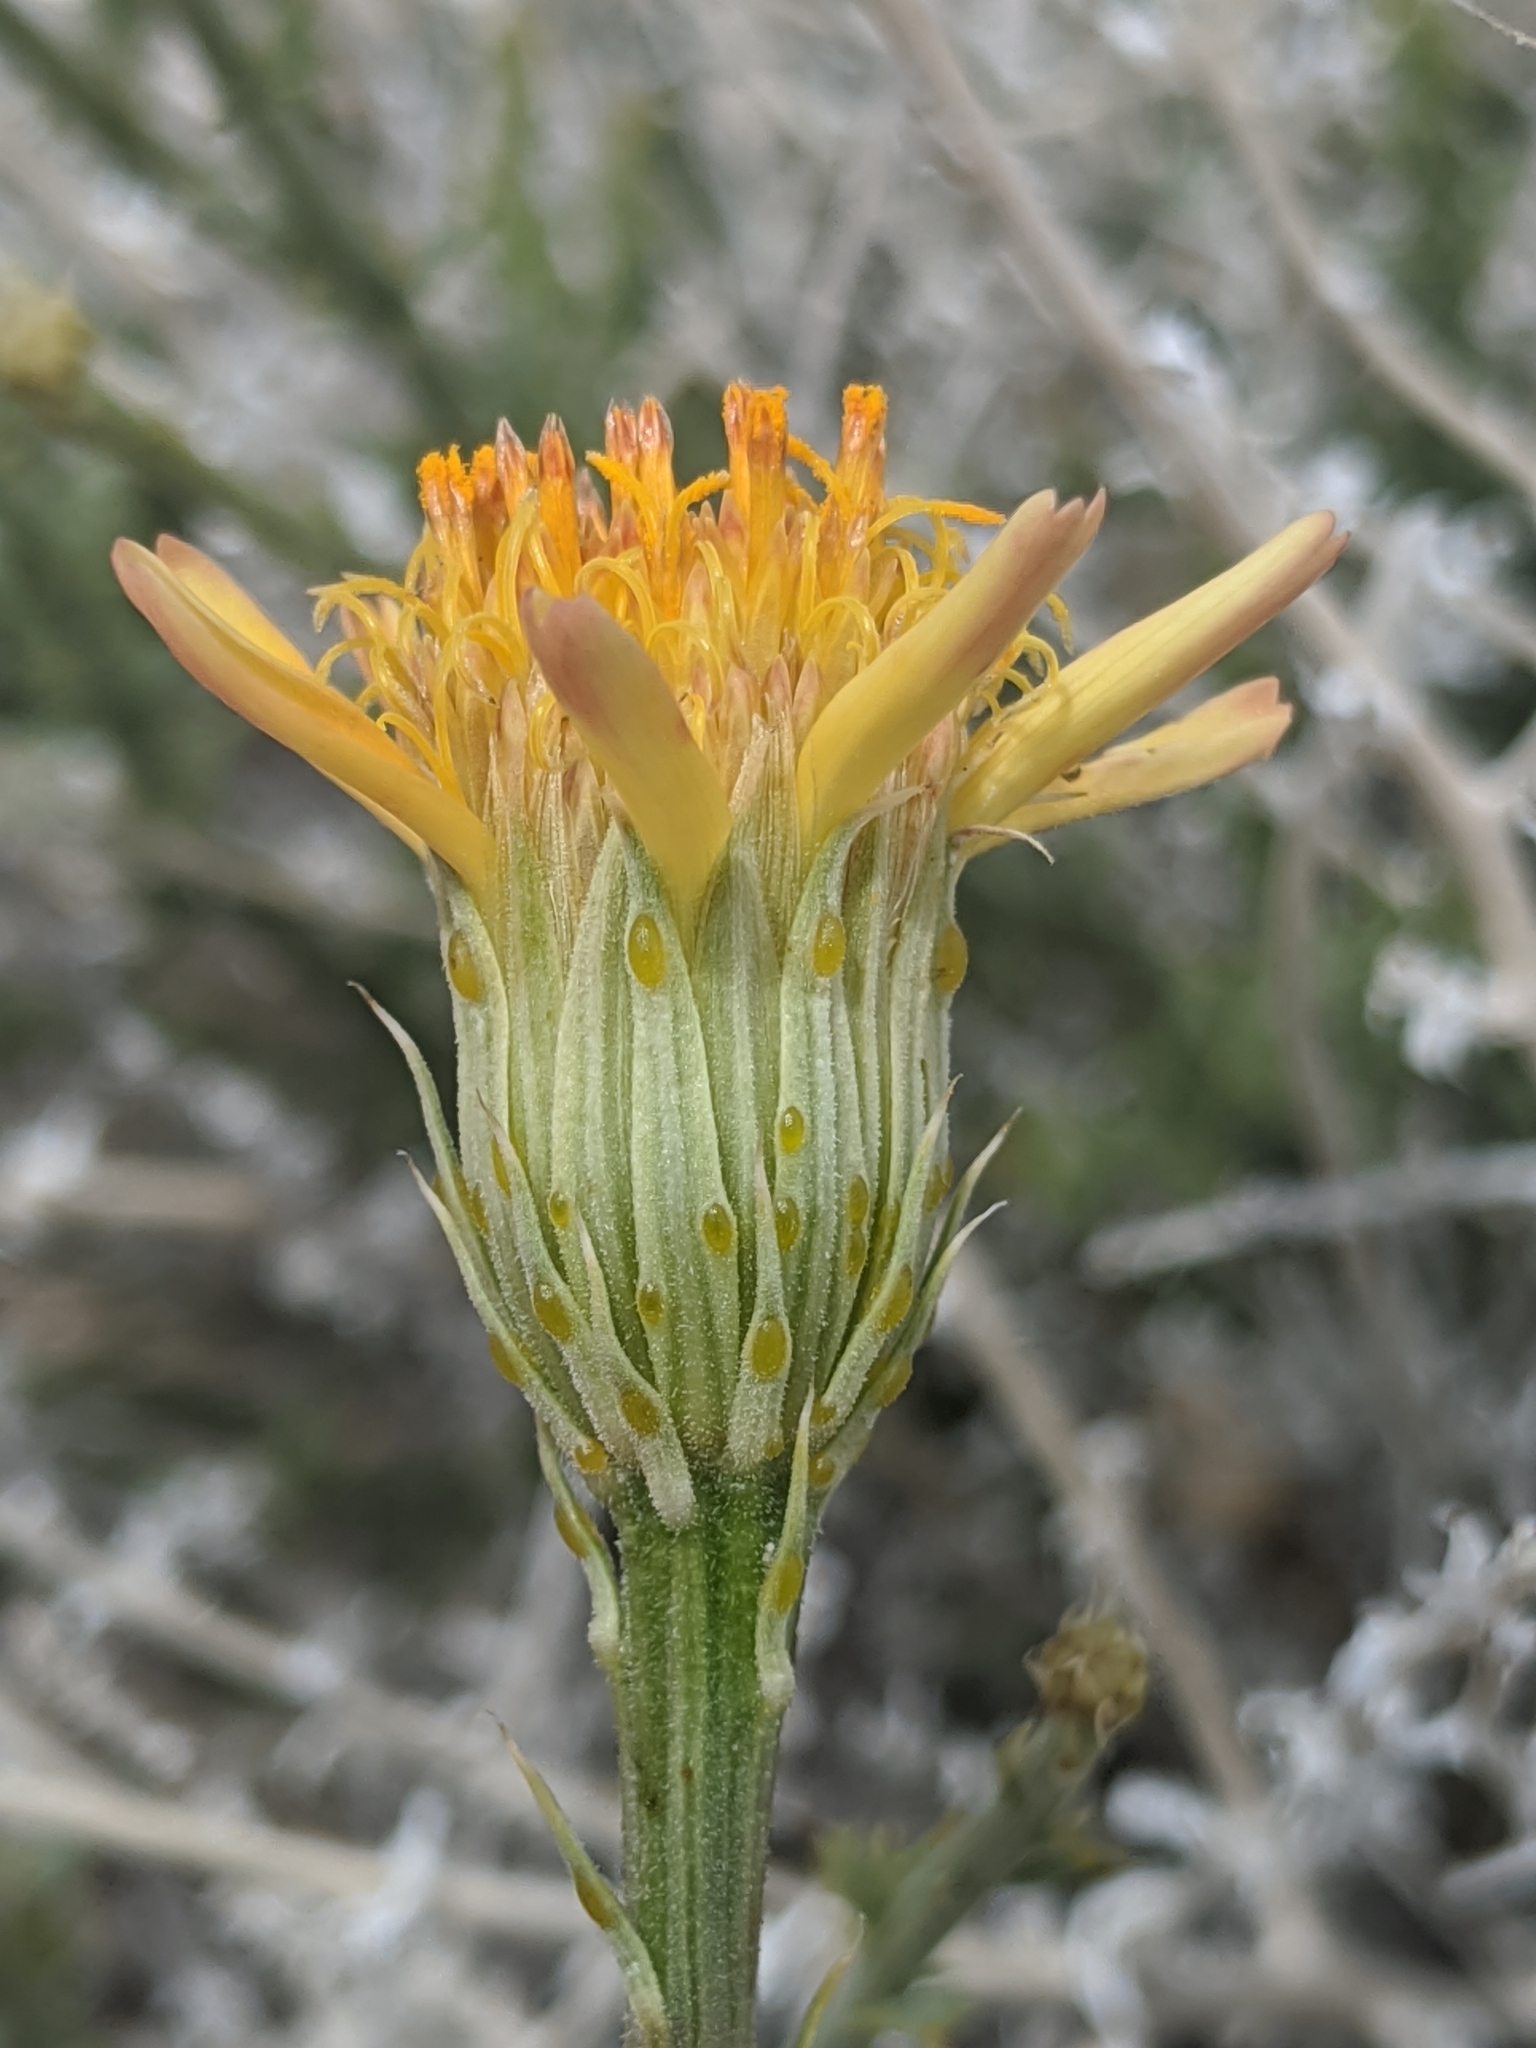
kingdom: Plantae
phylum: Tracheophyta
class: Magnoliopsida
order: Asterales
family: Asteraceae
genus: Adenophyllum
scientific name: Adenophyllum cooperi
